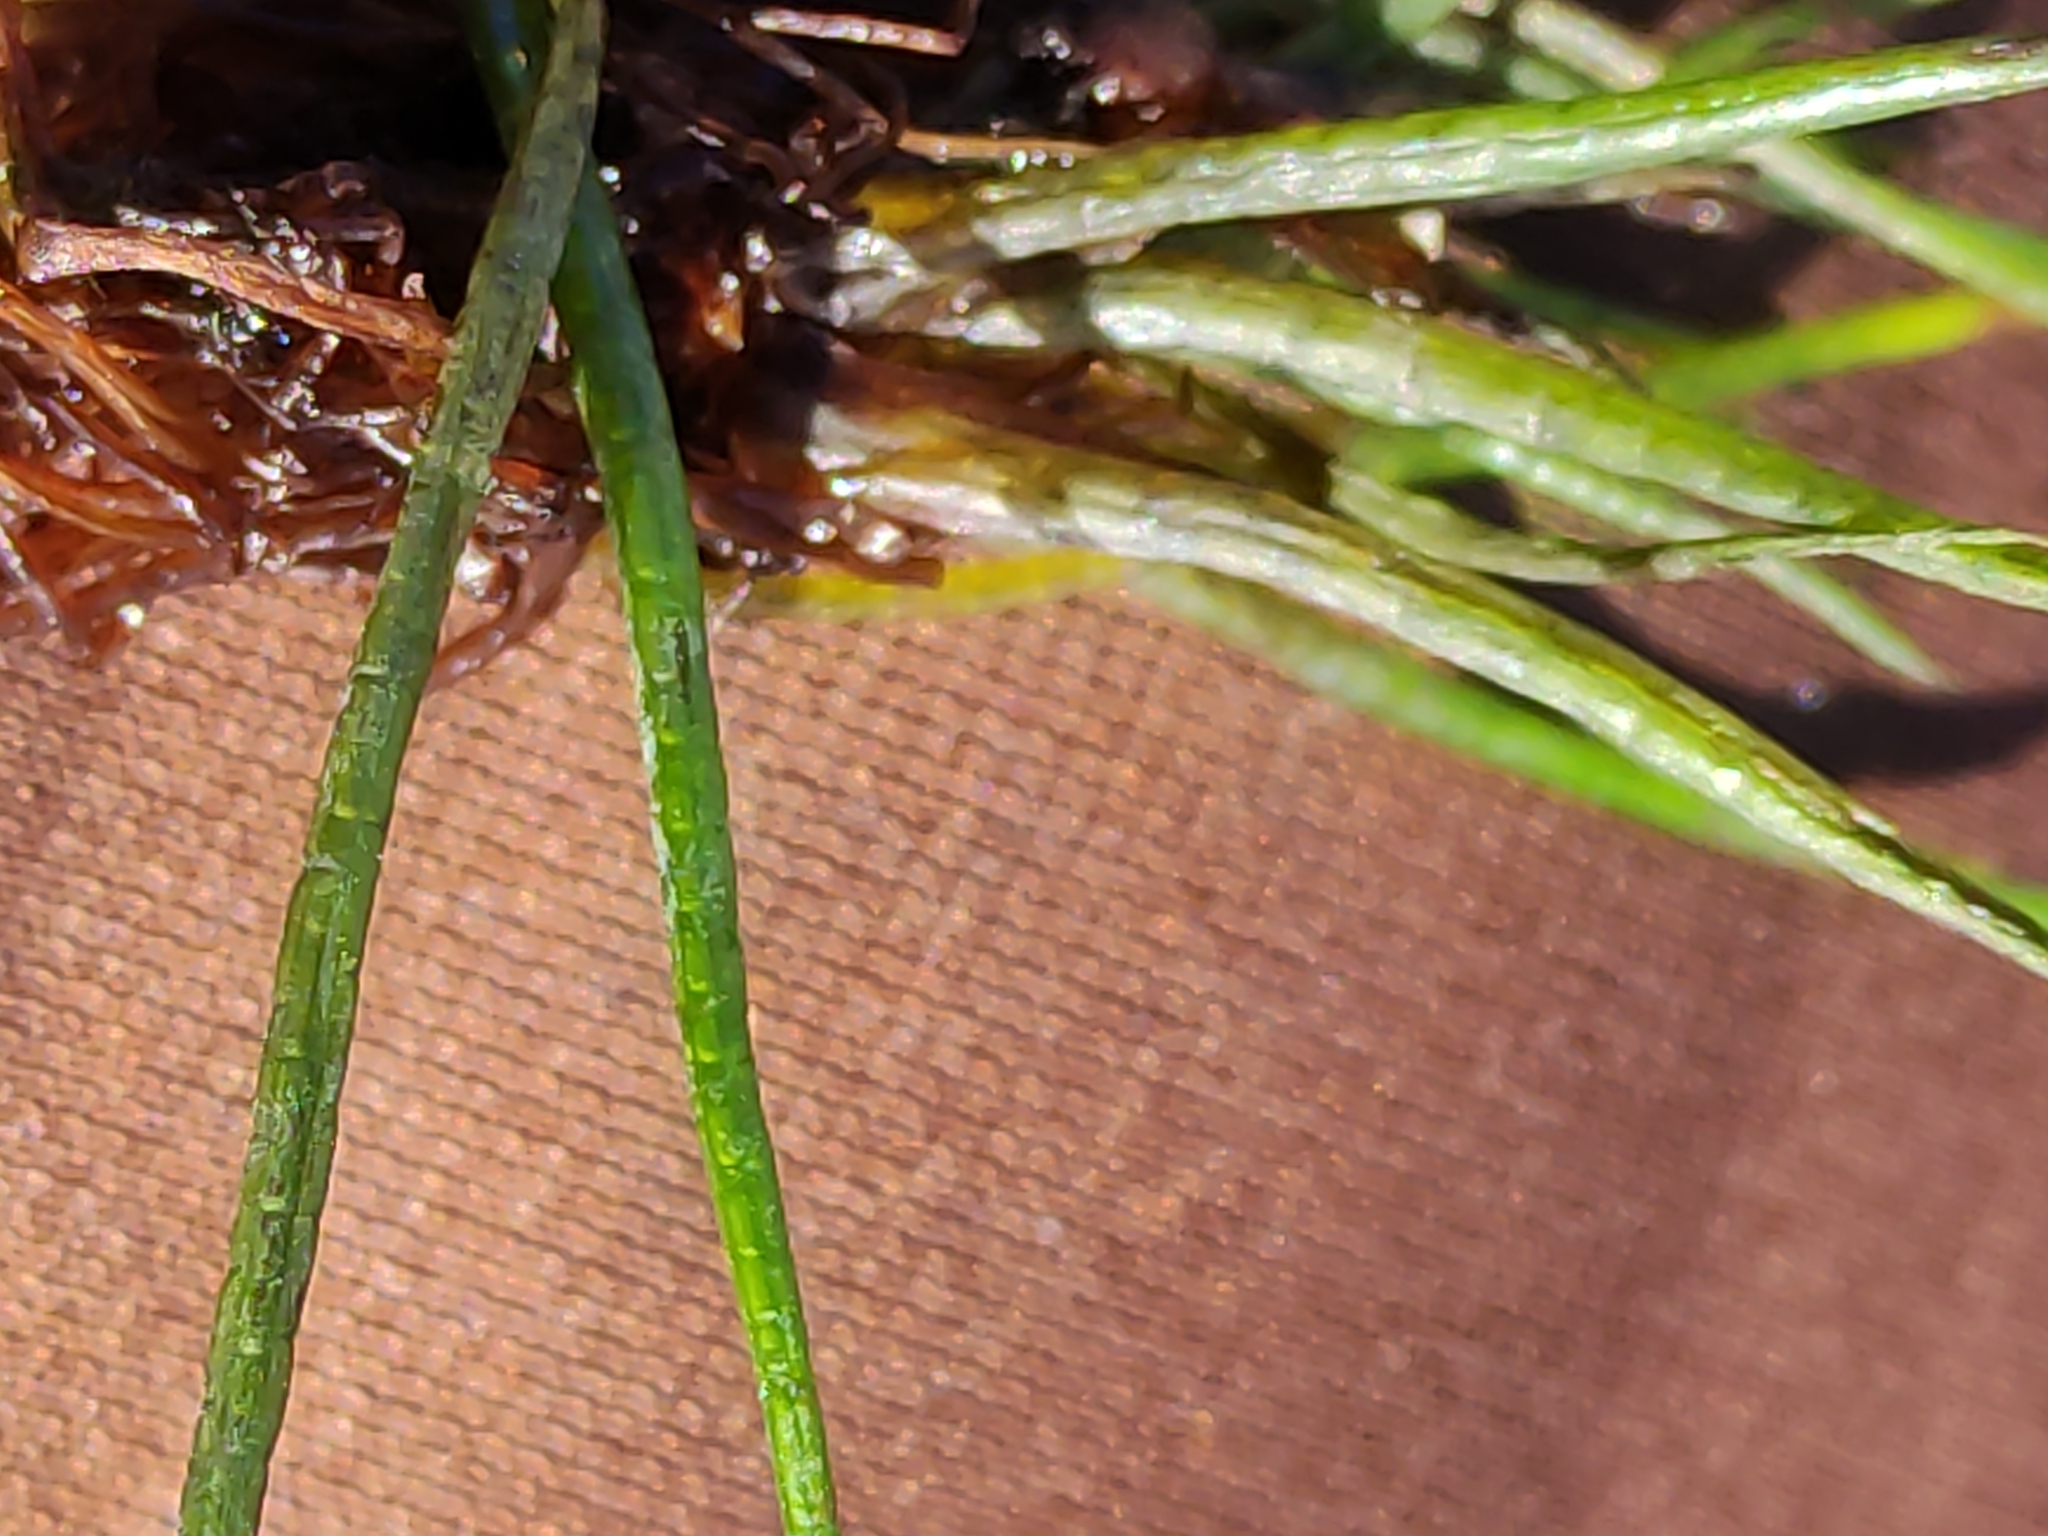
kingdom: Plantae
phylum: Tracheophyta
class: Lycopodiopsida
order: Isoetales
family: Isoetaceae
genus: Isoetes
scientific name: Isoetes alpina
